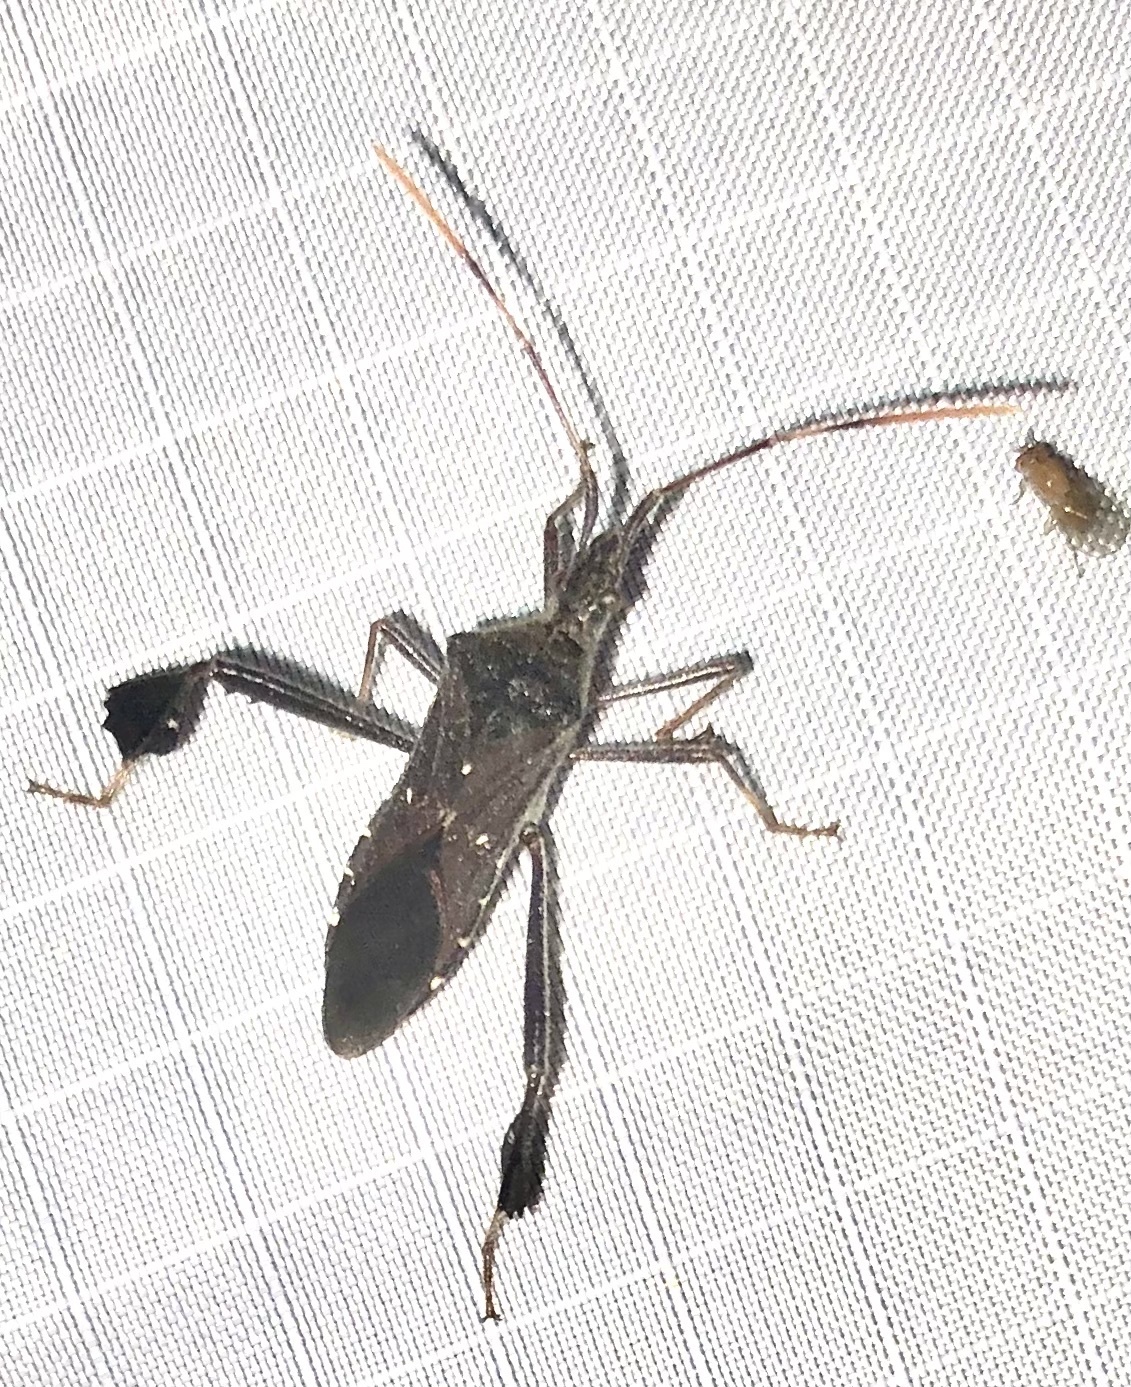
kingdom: Animalia
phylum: Arthropoda
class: Insecta
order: Hemiptera
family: Coreidae
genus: Leptoglossus
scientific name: Leptoglossus oppositus
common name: Northern leaf-footed bug
